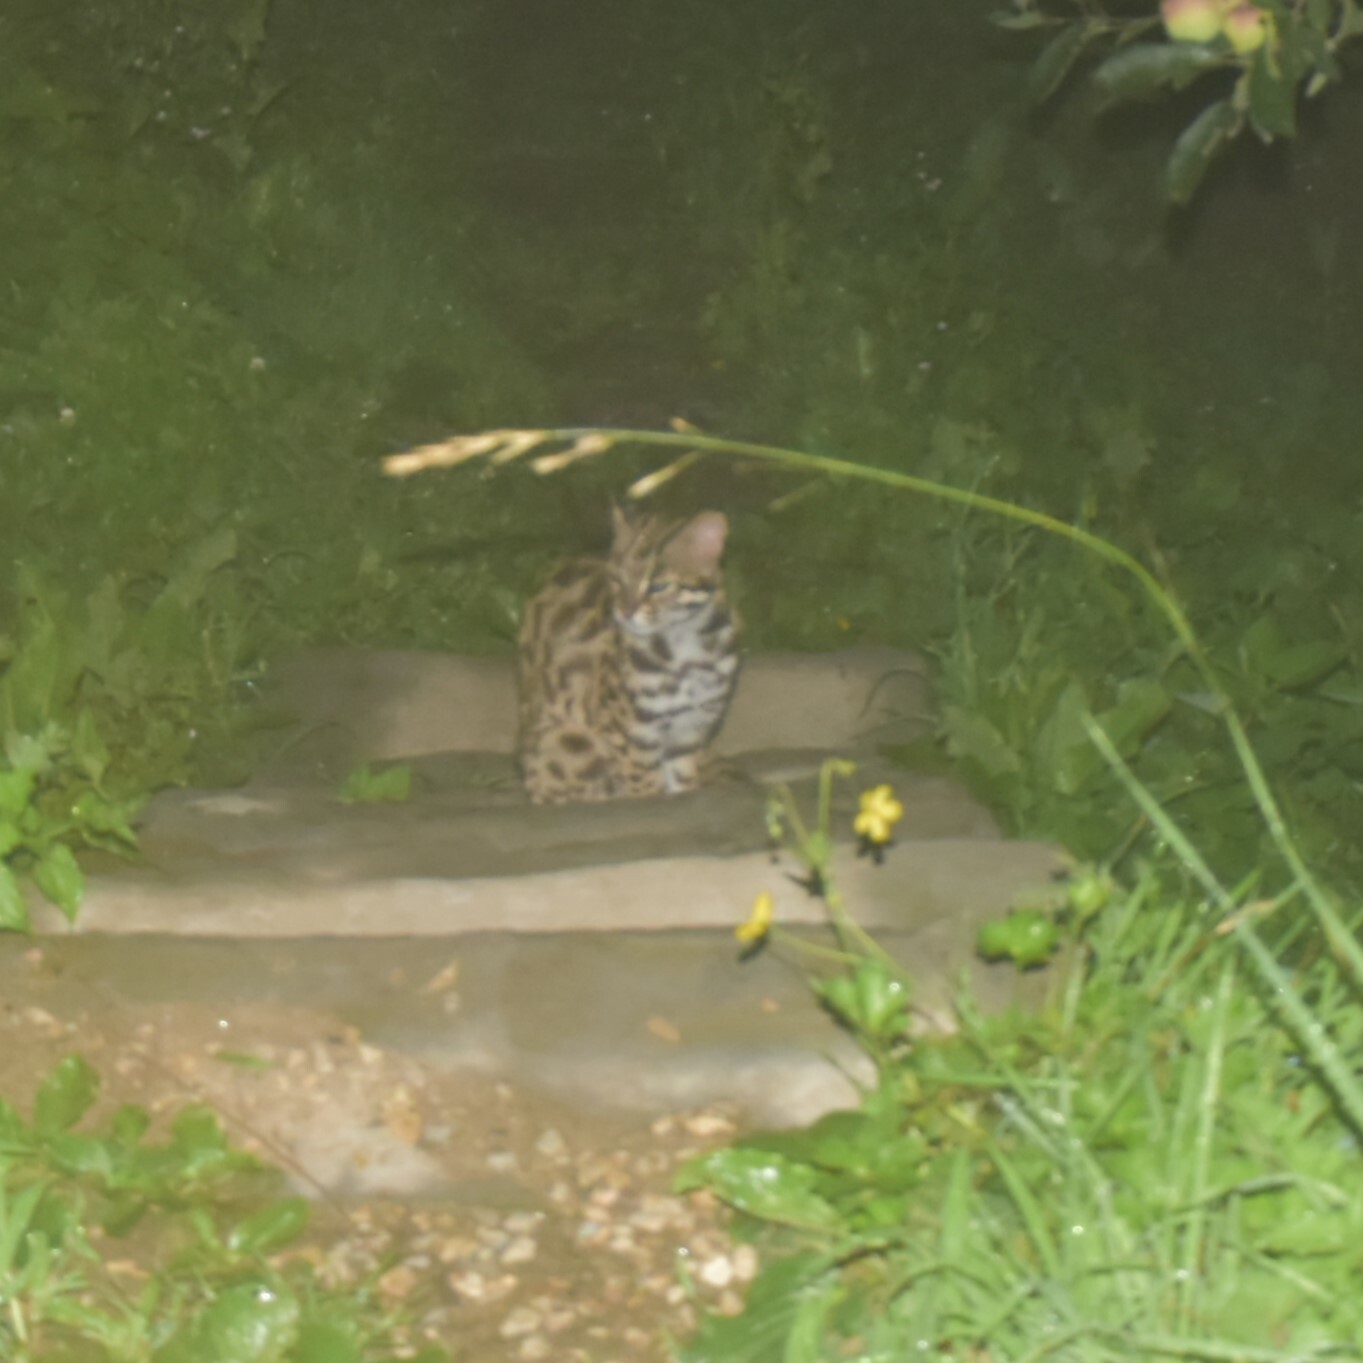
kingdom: Animalia
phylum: Chordata
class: Mammalia
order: Carnivora
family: Felidae
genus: Prionailurus
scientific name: Prionailurus bengalensis
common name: Leopard cat
